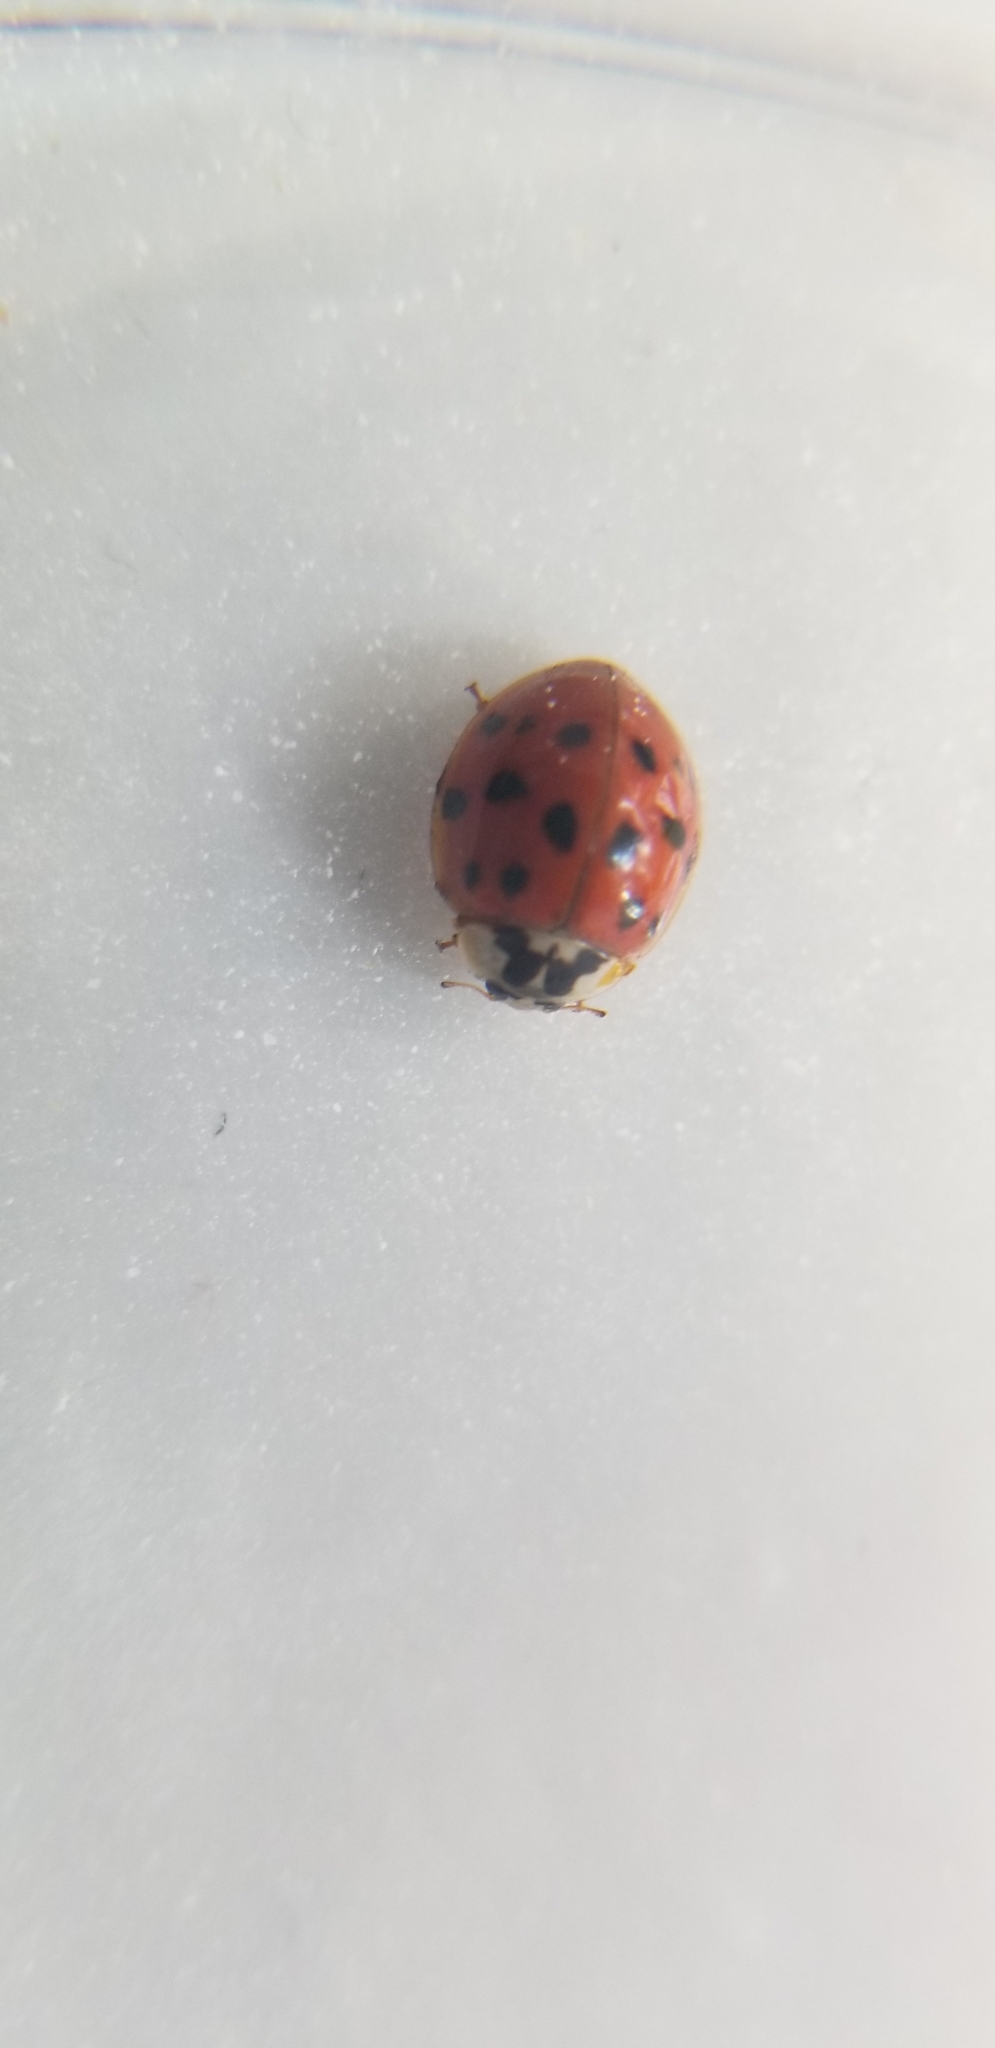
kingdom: Animalia
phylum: Arthropoda
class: Insecta
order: Coleoptera
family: Coccinellidae
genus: Harmonia
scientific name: Harmonia axyridis
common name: Harlequin ladybird
